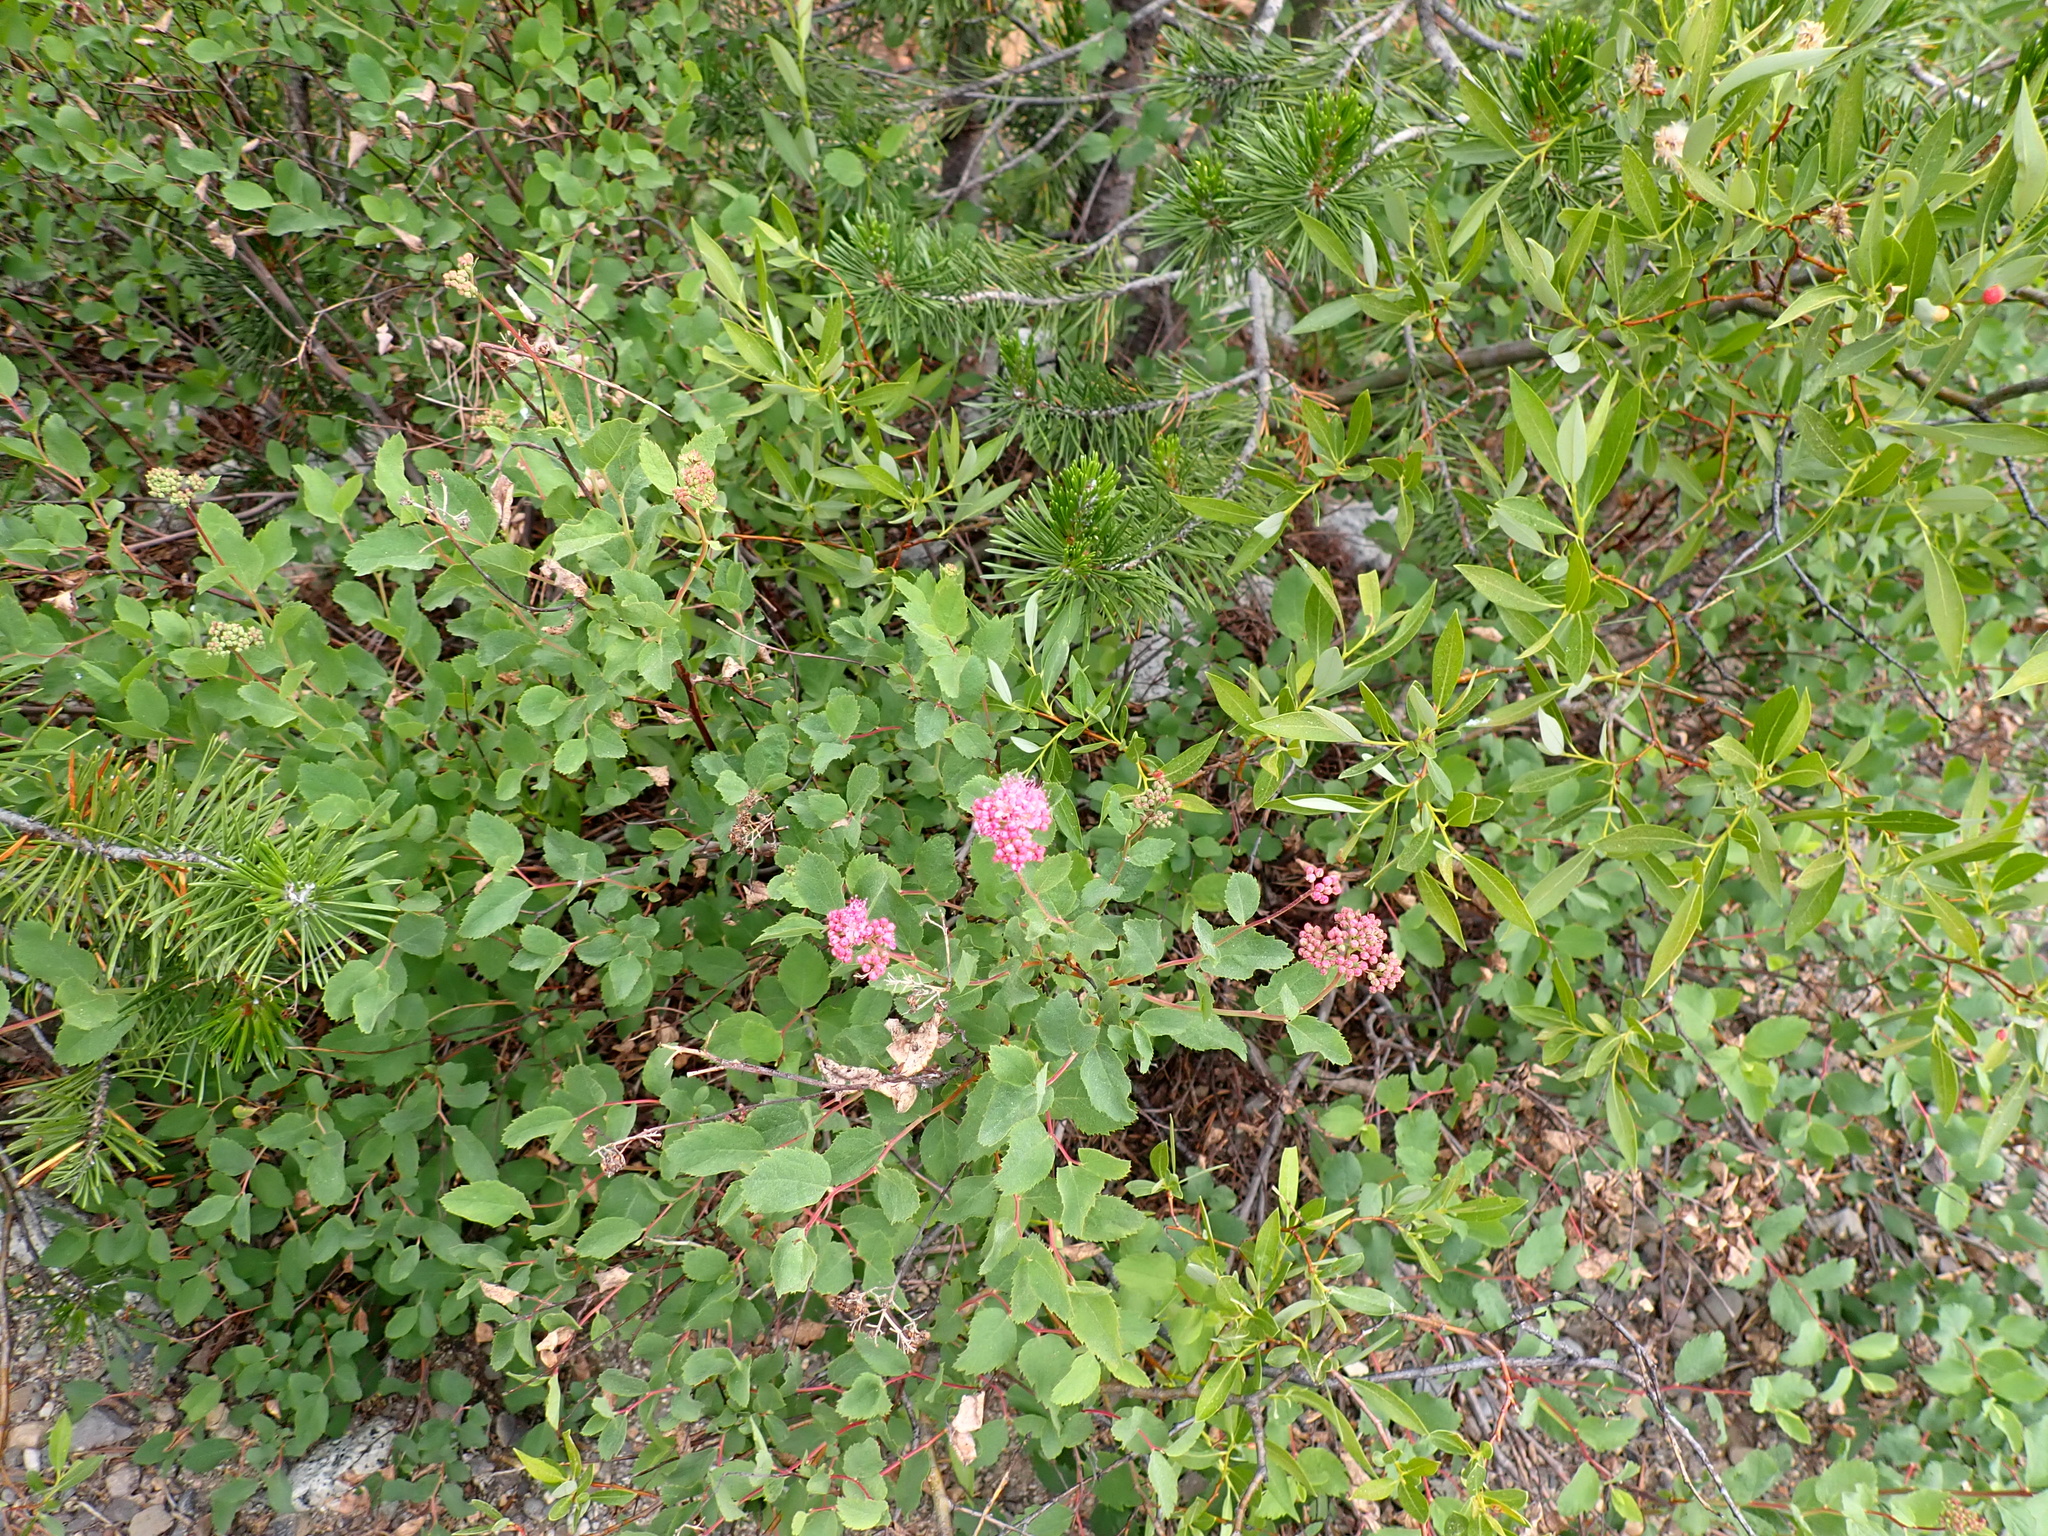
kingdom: Plantae
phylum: Tracheophyta
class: Magnoliopsida
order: Rosales
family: Rosaceae
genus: Spiraea
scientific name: Spiraea splendens
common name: Subalpine meadowsweet
